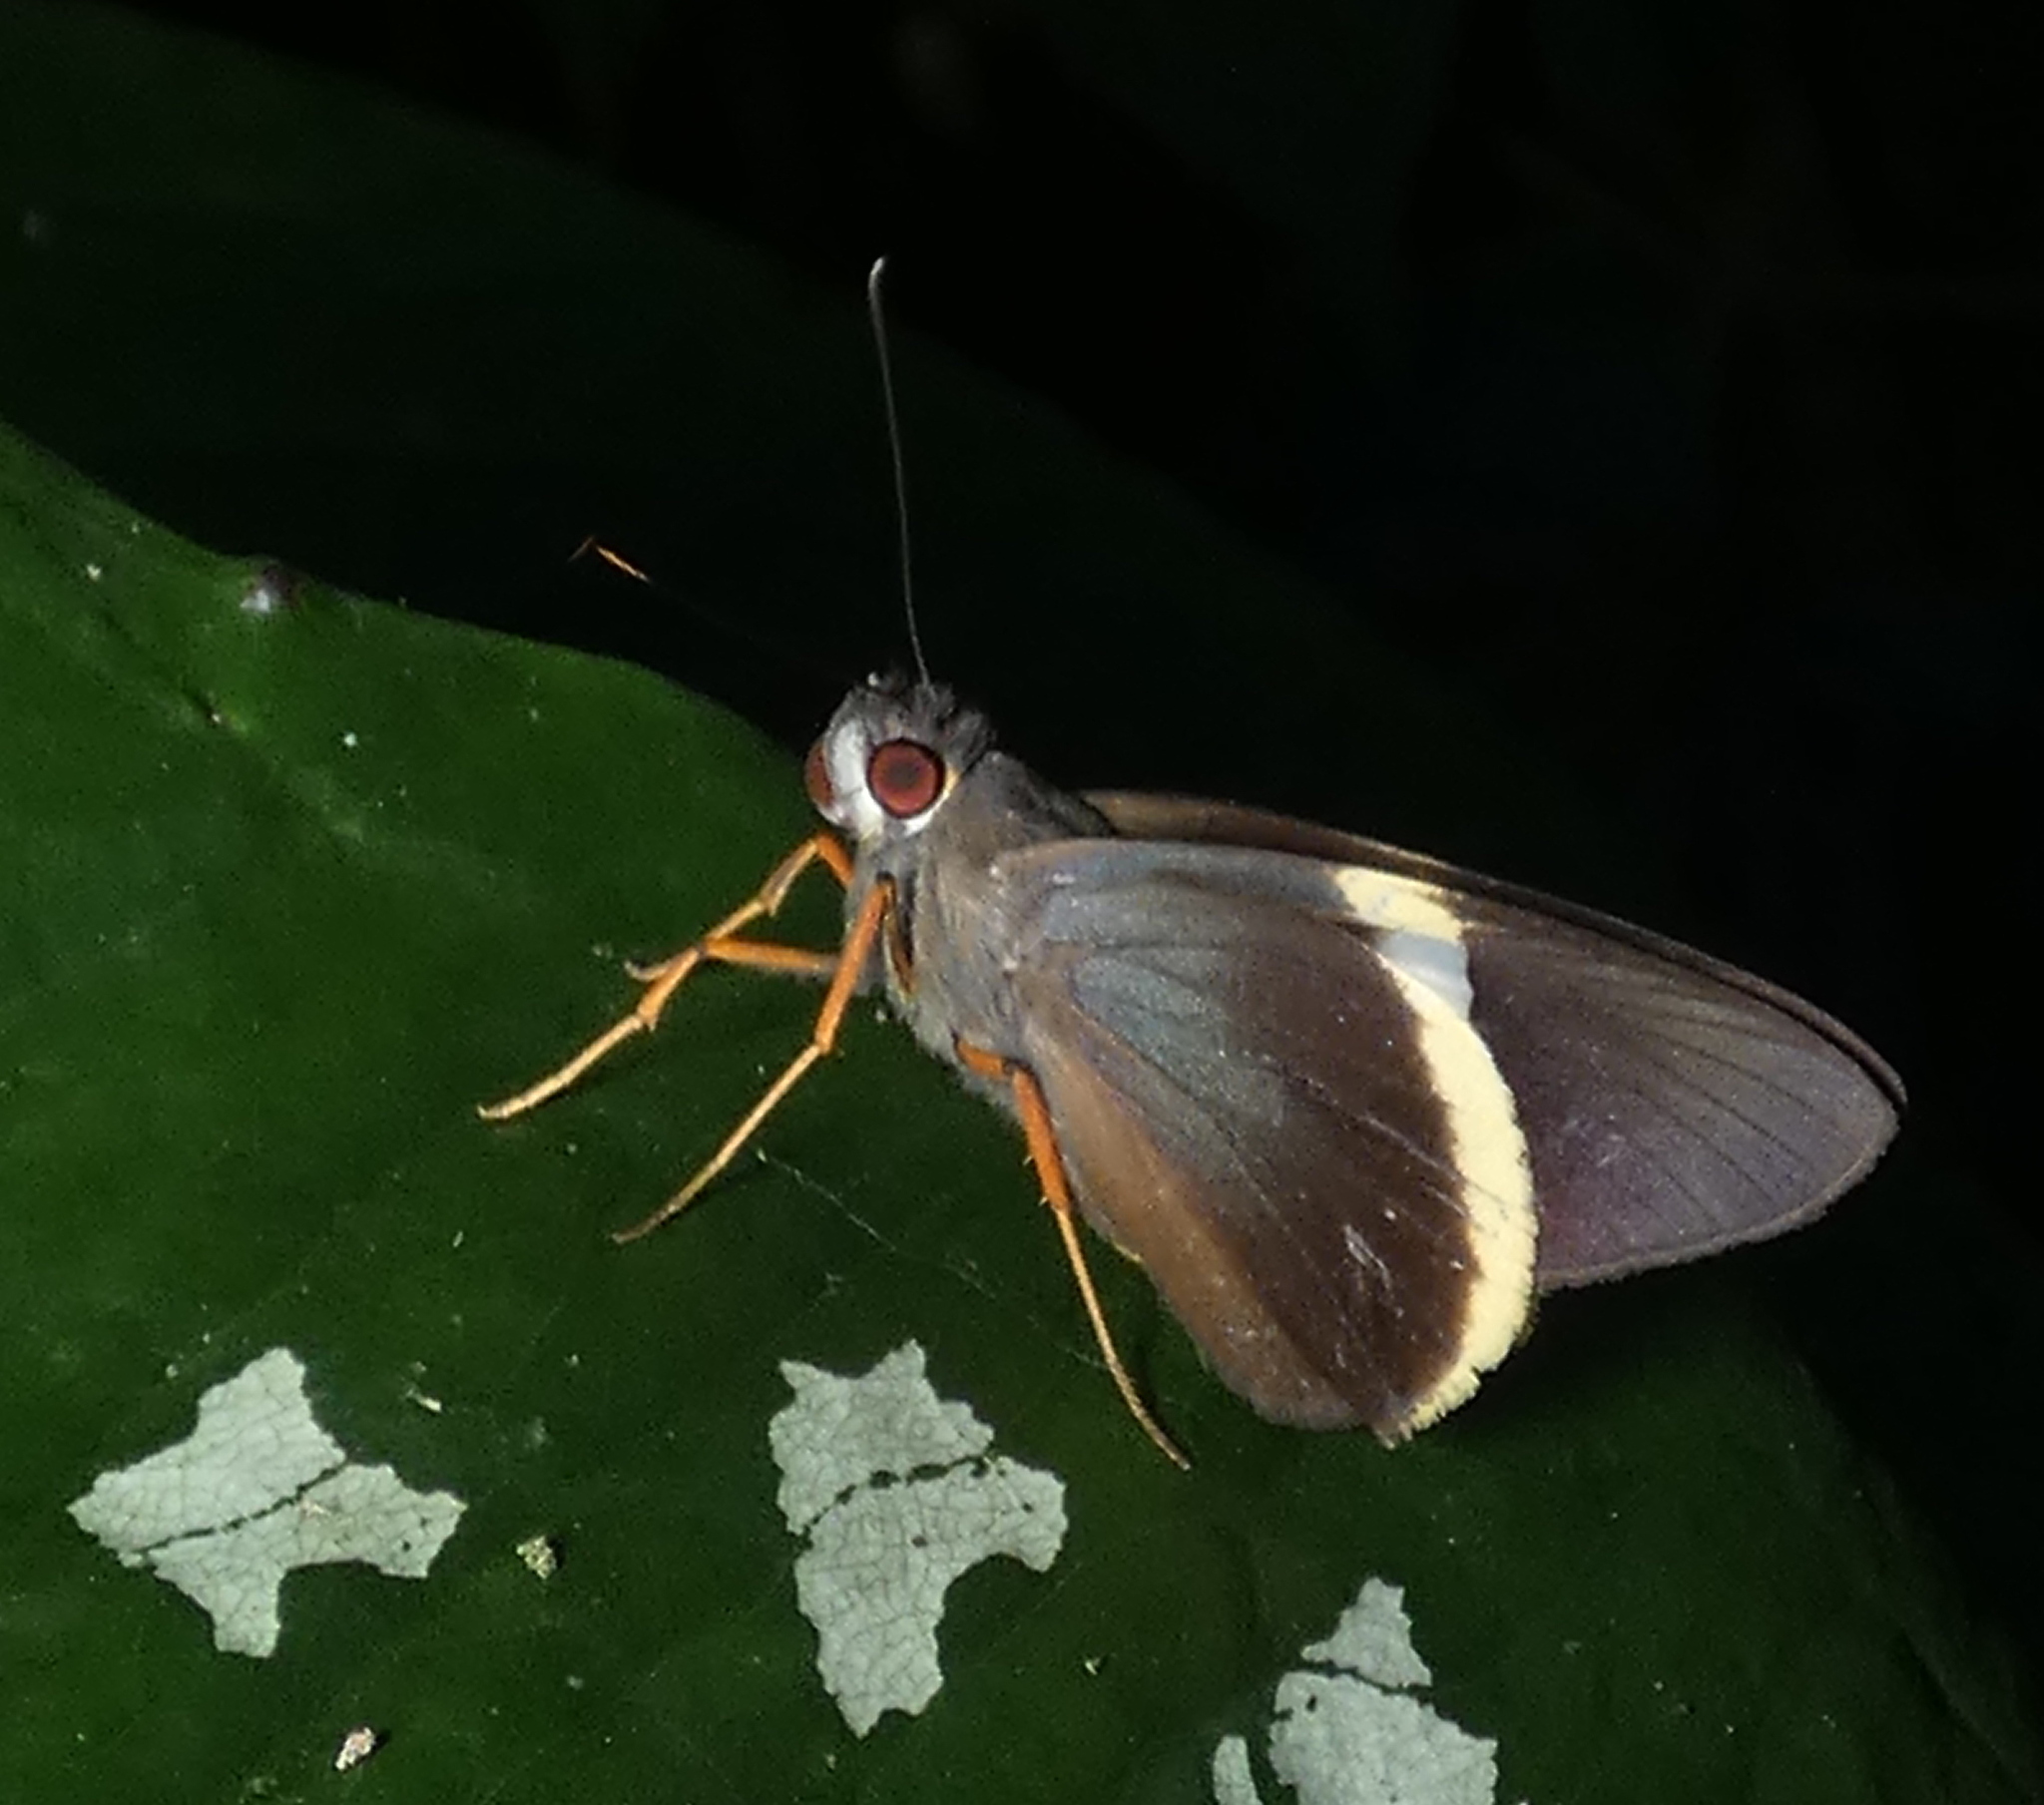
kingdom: Animalia
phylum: Arthropoda
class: Insecta
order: Lepidoptera
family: Hesperiidae
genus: Orses
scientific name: Orses cynisca
